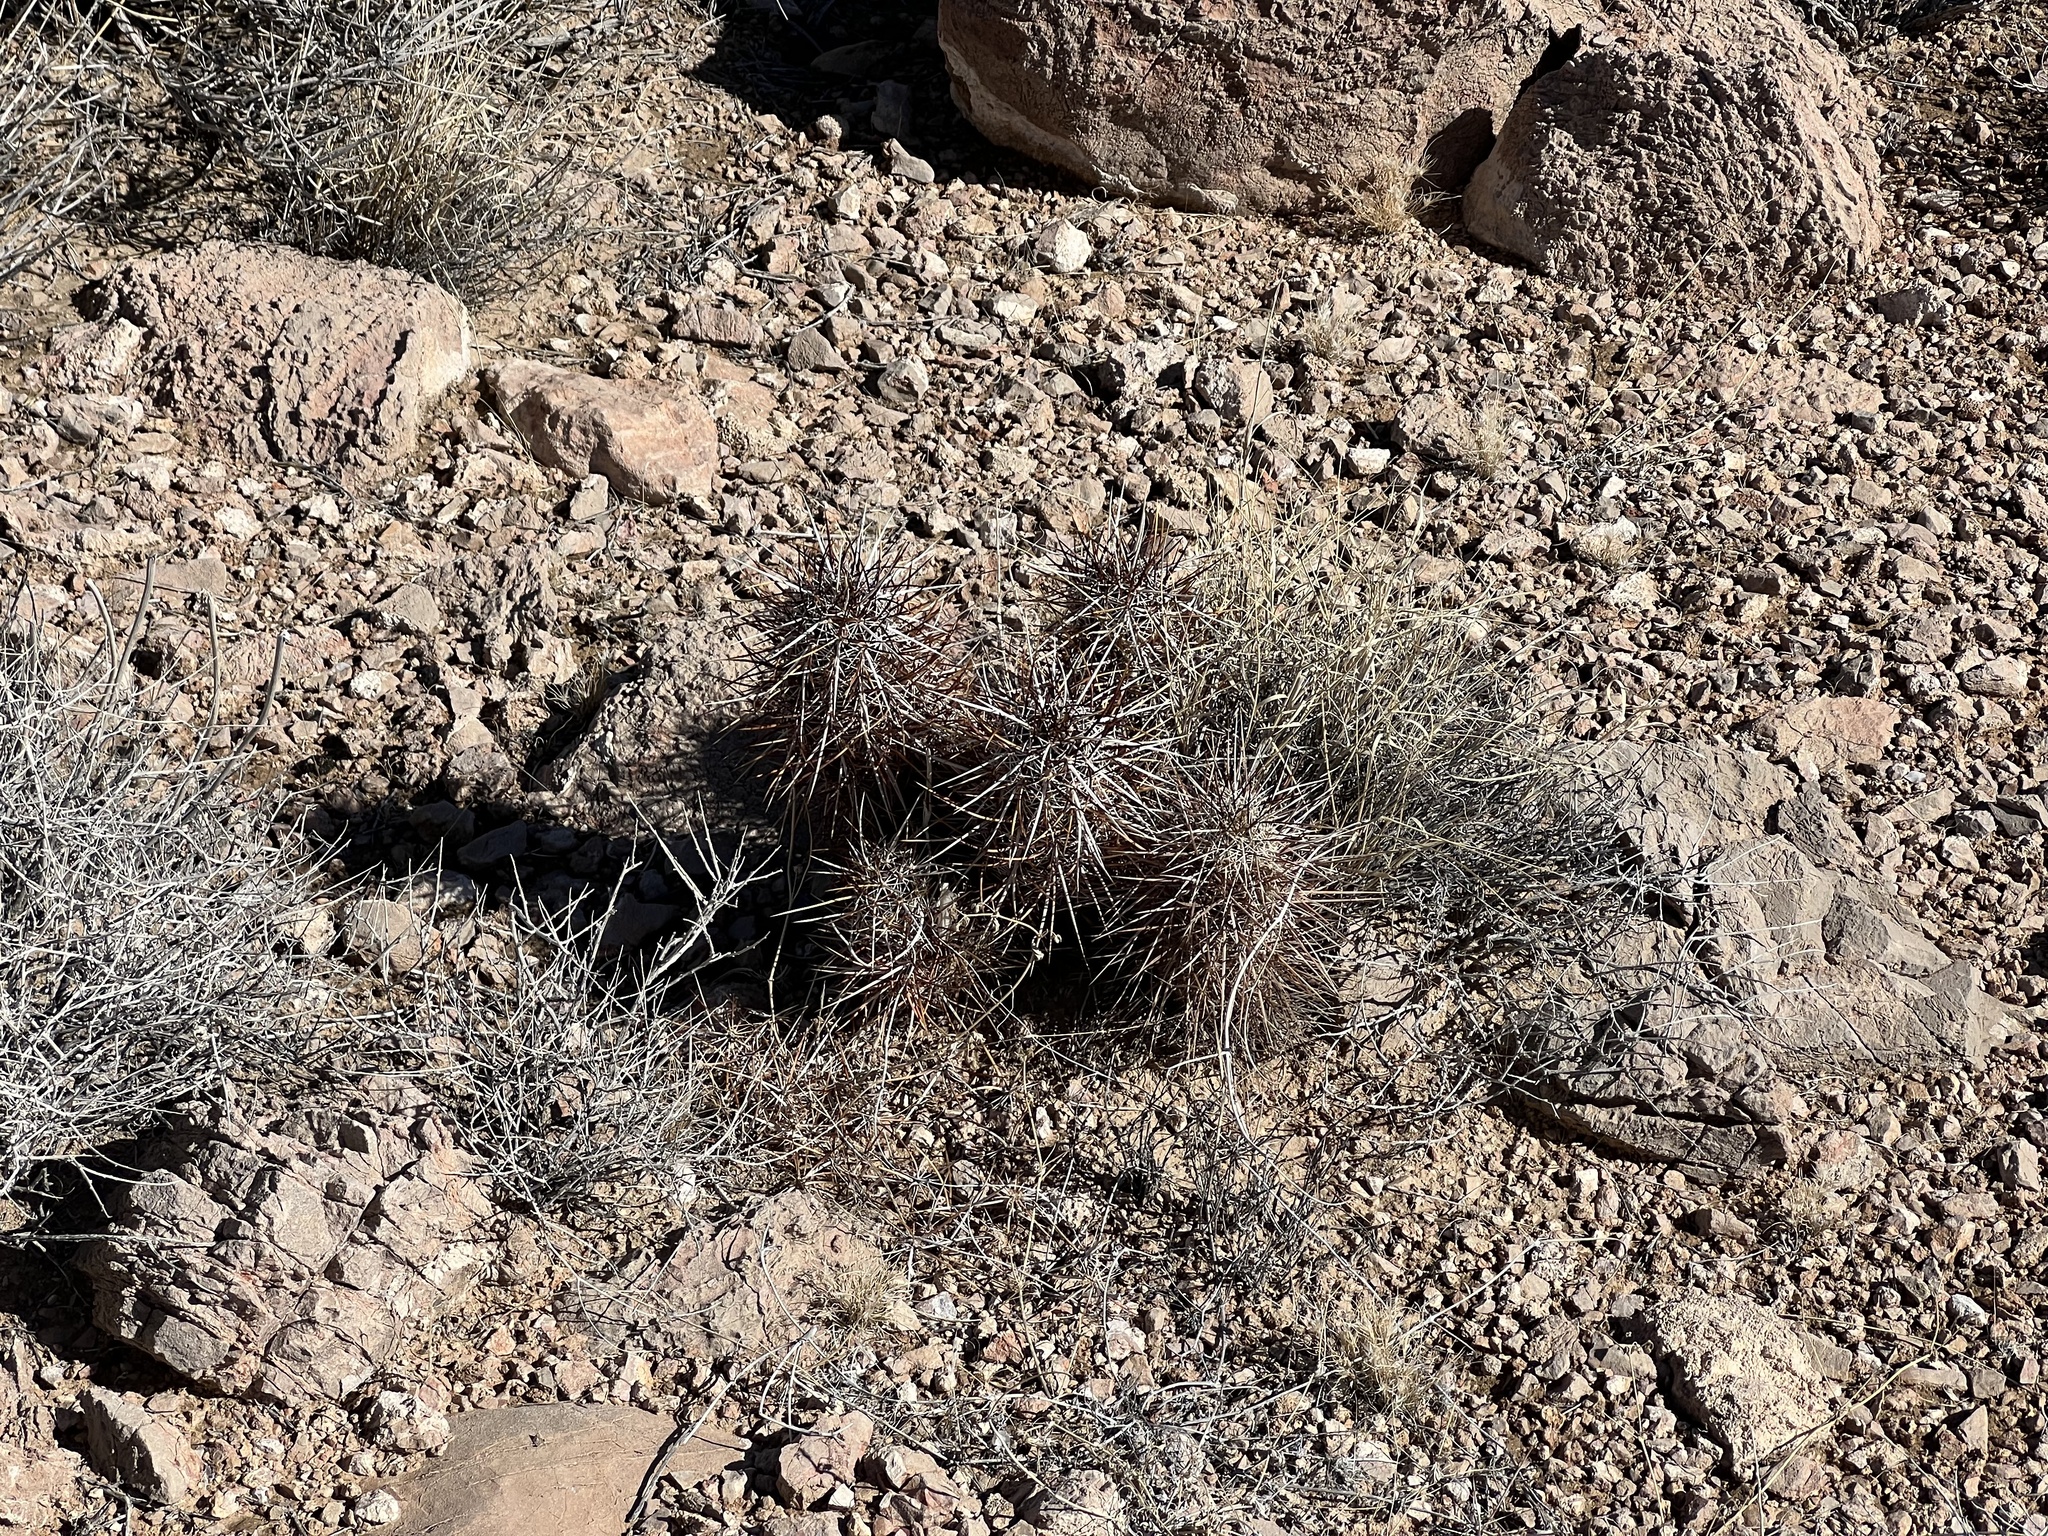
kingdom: Plantae
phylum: Tracheophyta
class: Magnoliopsida
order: Caryophyllales
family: Cactaceae
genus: Echinocereus
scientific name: Echinocereus engelmannii
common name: Engelmann's hedgehog cactus
